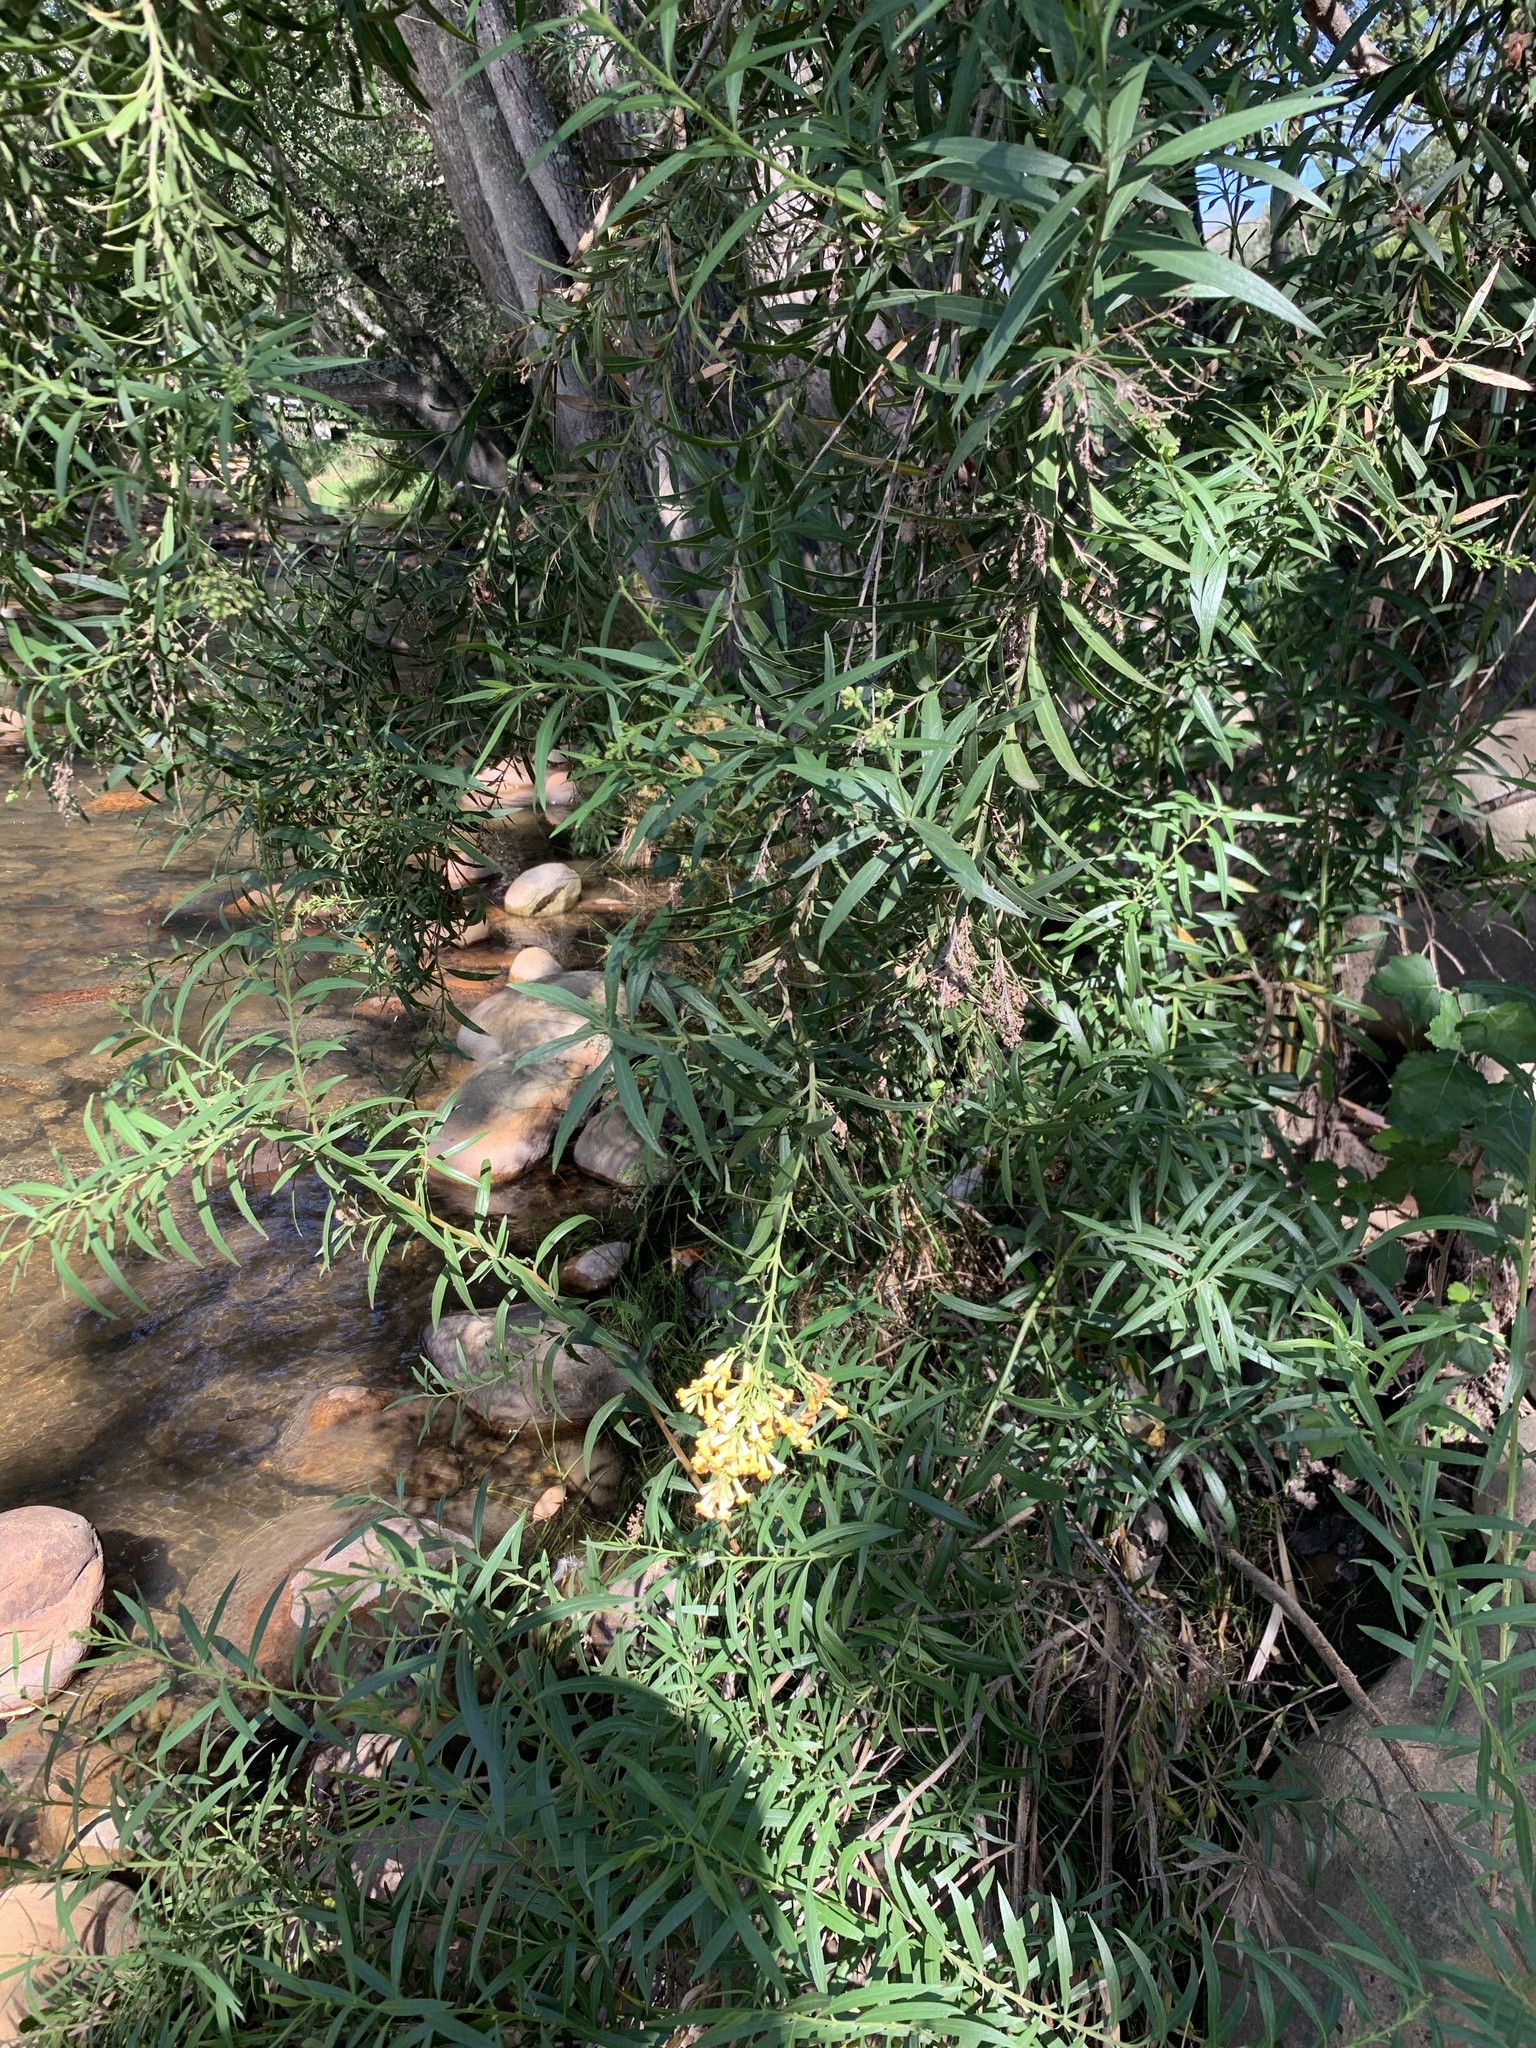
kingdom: Plantae
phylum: Tracheophyta
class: Magnoliopsida
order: Lamiales
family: Scrophulariaceae
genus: Freylinia
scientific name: Freylinia lanceolata
